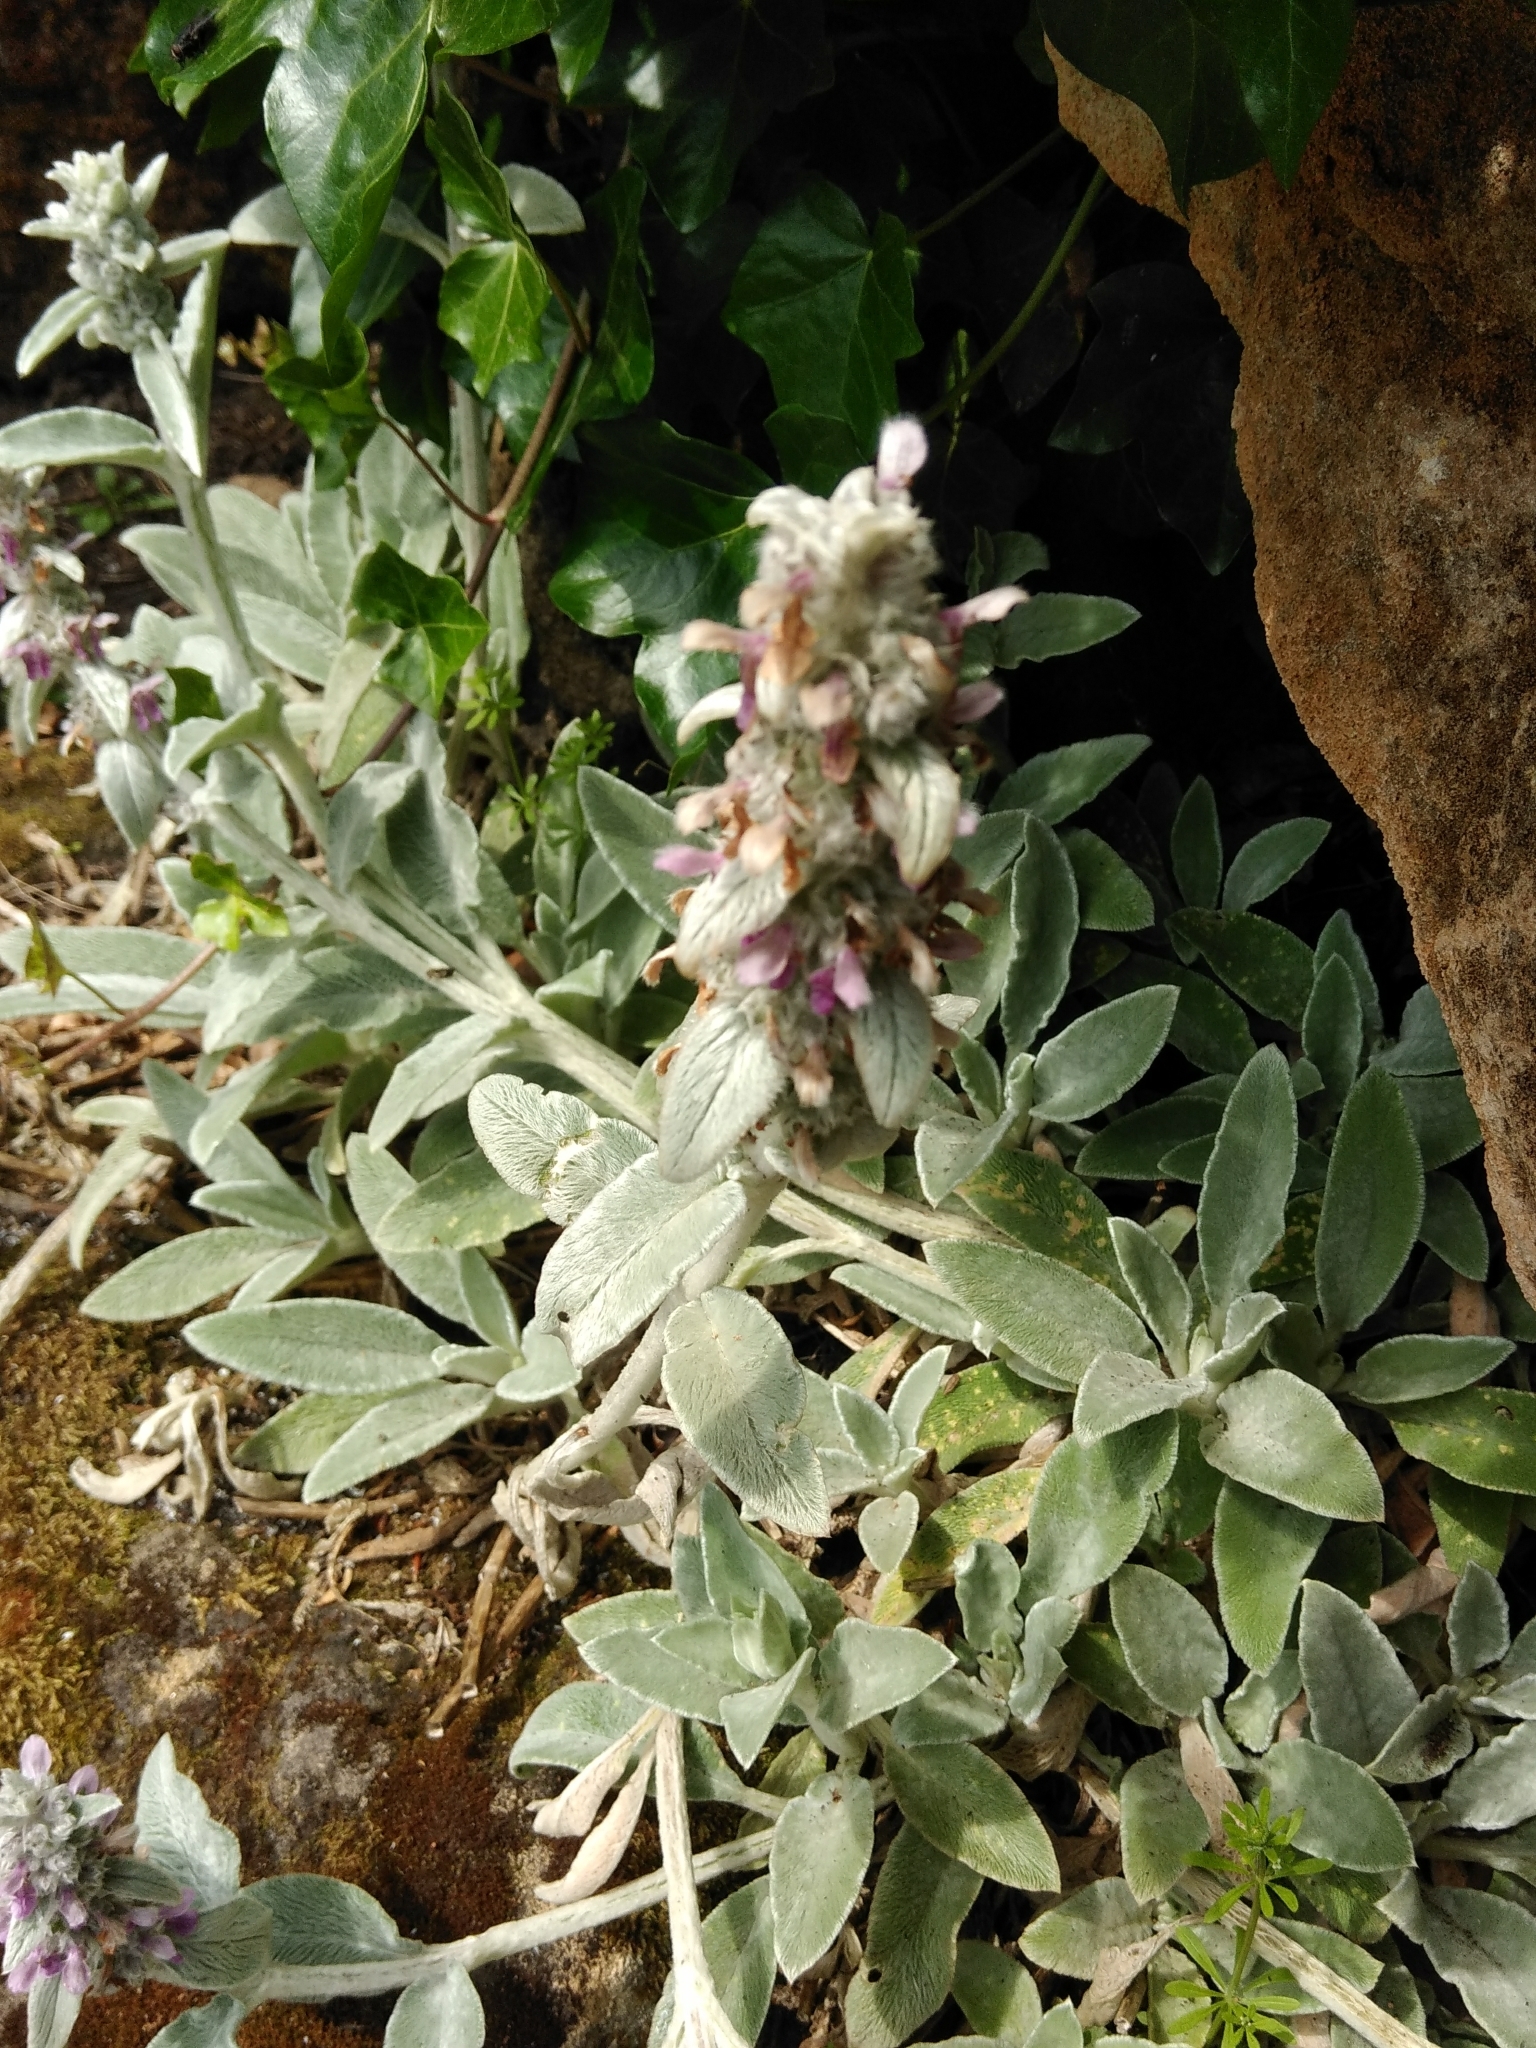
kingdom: Plantae
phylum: Tracheophyta
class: Magnoliopsida
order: Lamiales
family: Lamiaceae
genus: Stachys
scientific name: Stachys byzantina
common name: Lamb's-ear
